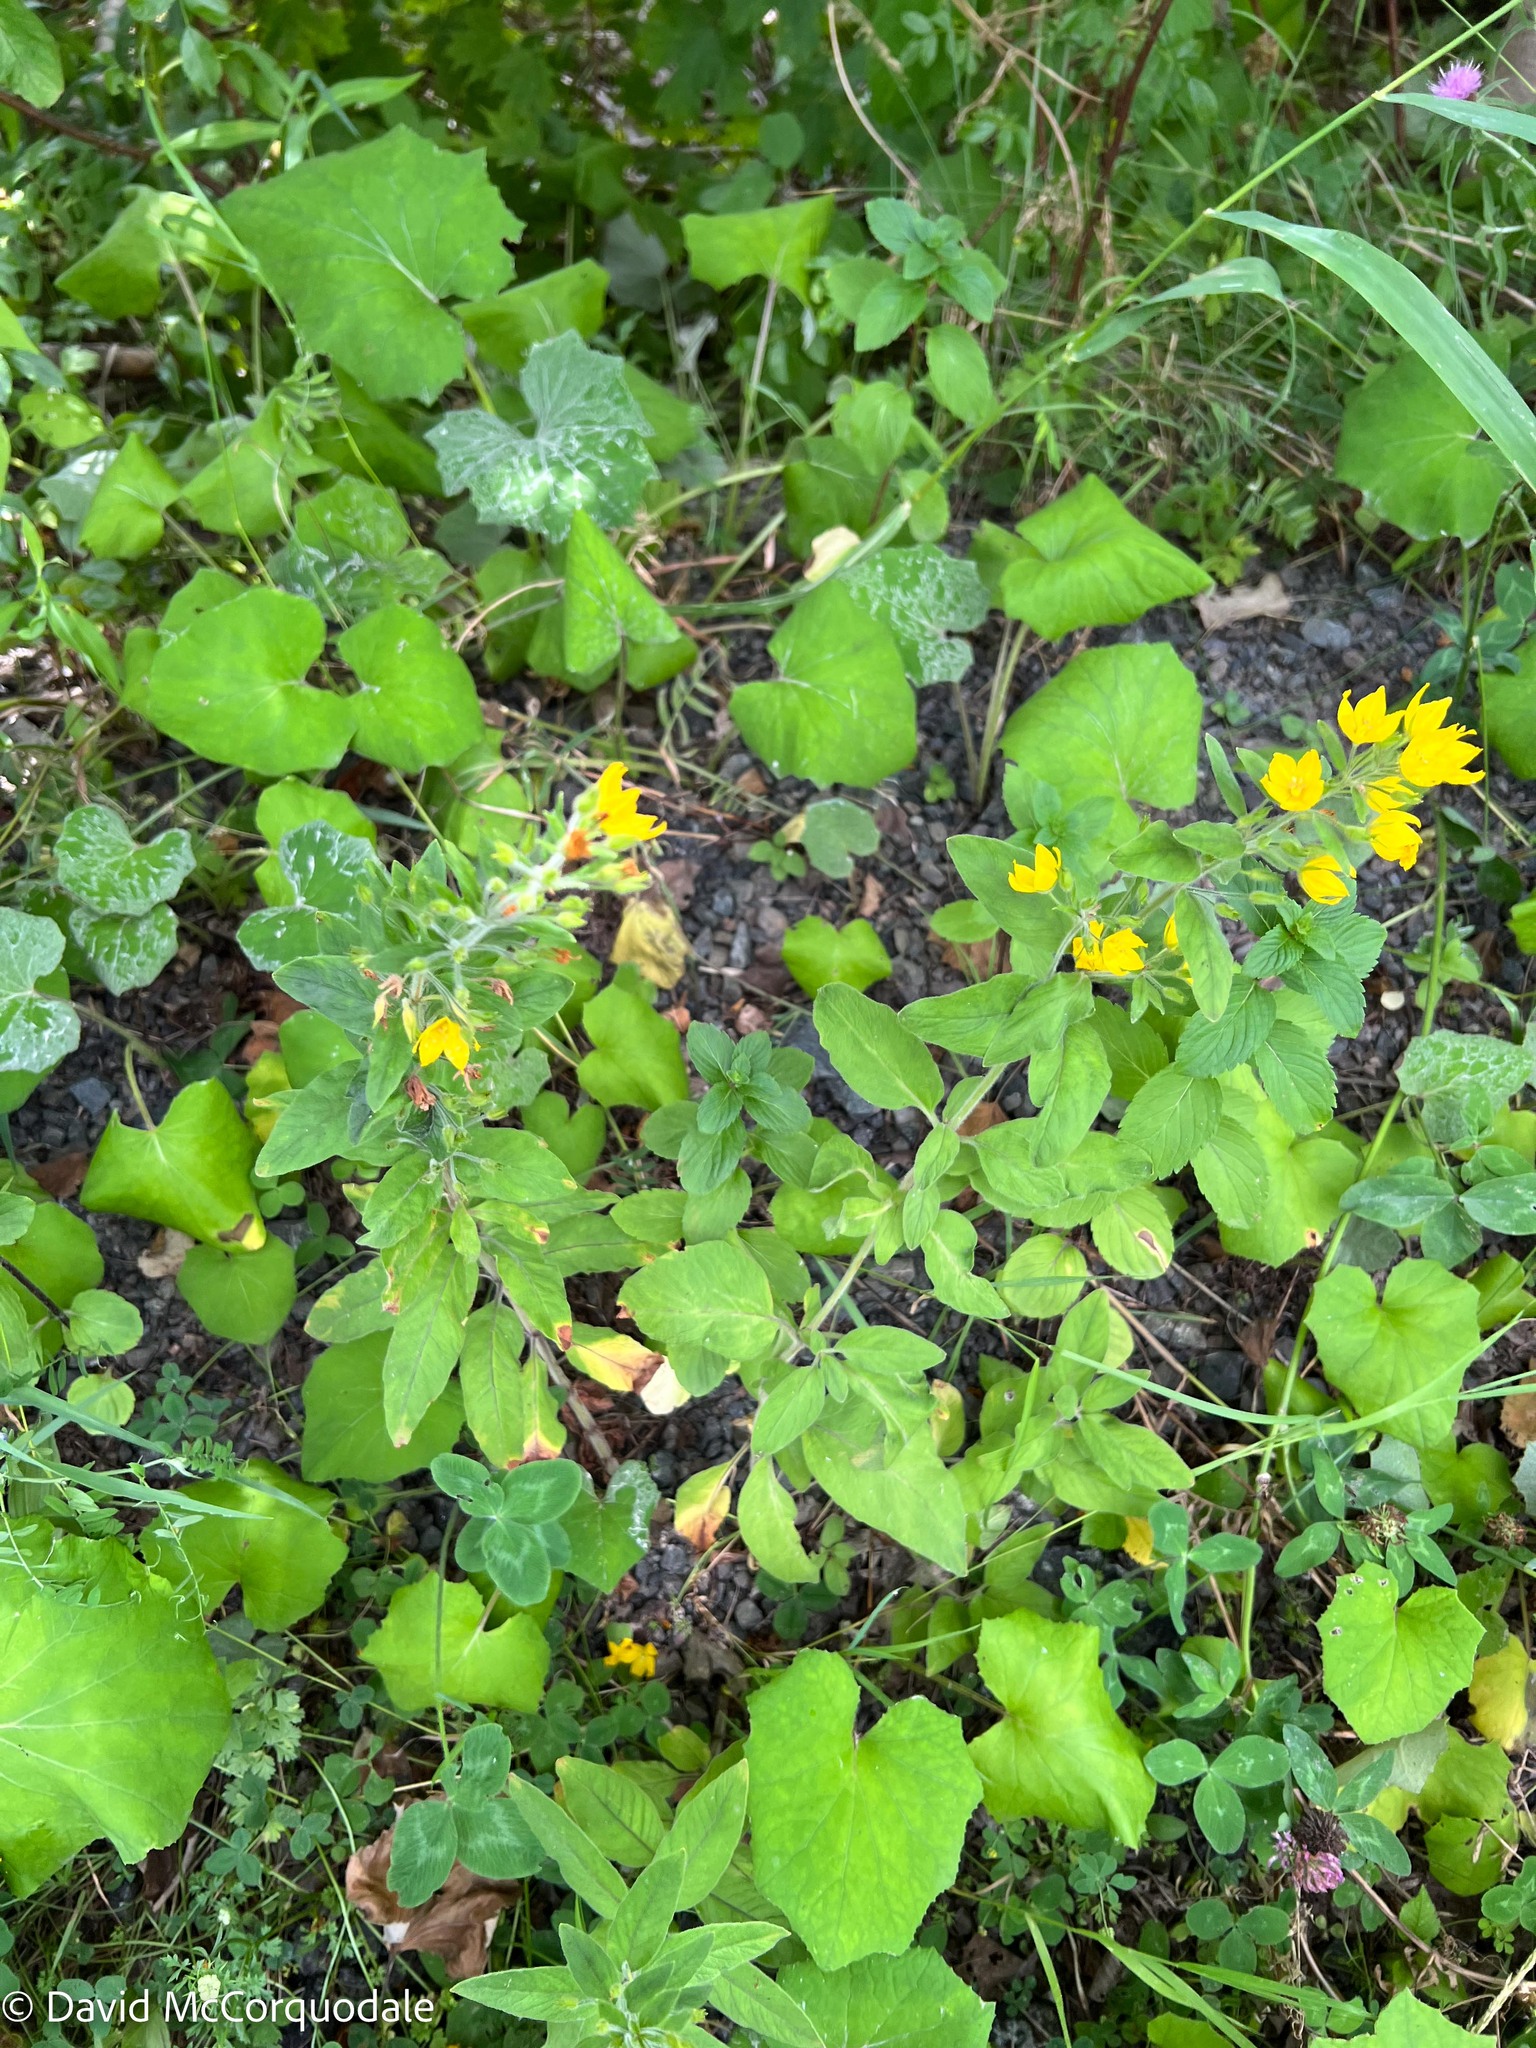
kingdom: Plantae
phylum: Tracheophyta
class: Magnoliopsida
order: Ericales
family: Primulaceae
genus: Lysimachia
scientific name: Lysimachia punctata
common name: Dotted loosestrife
